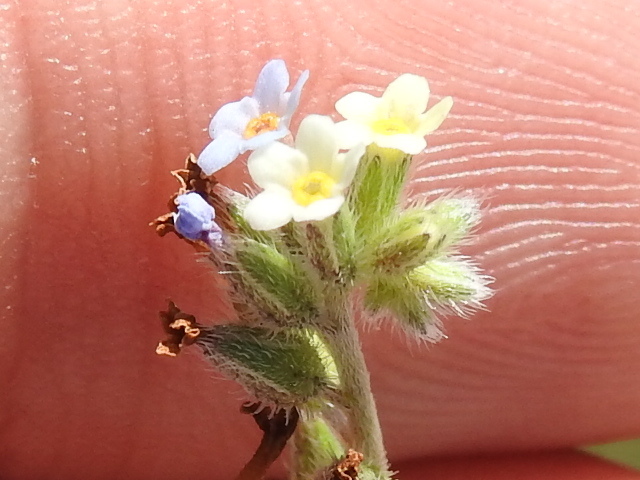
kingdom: Plantae
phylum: Tracheophyta
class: Magnoliopsida
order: Boraginales
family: Boraginaceae
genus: Myosotis
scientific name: Myosotis discolor
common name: Changing forget-me-not
